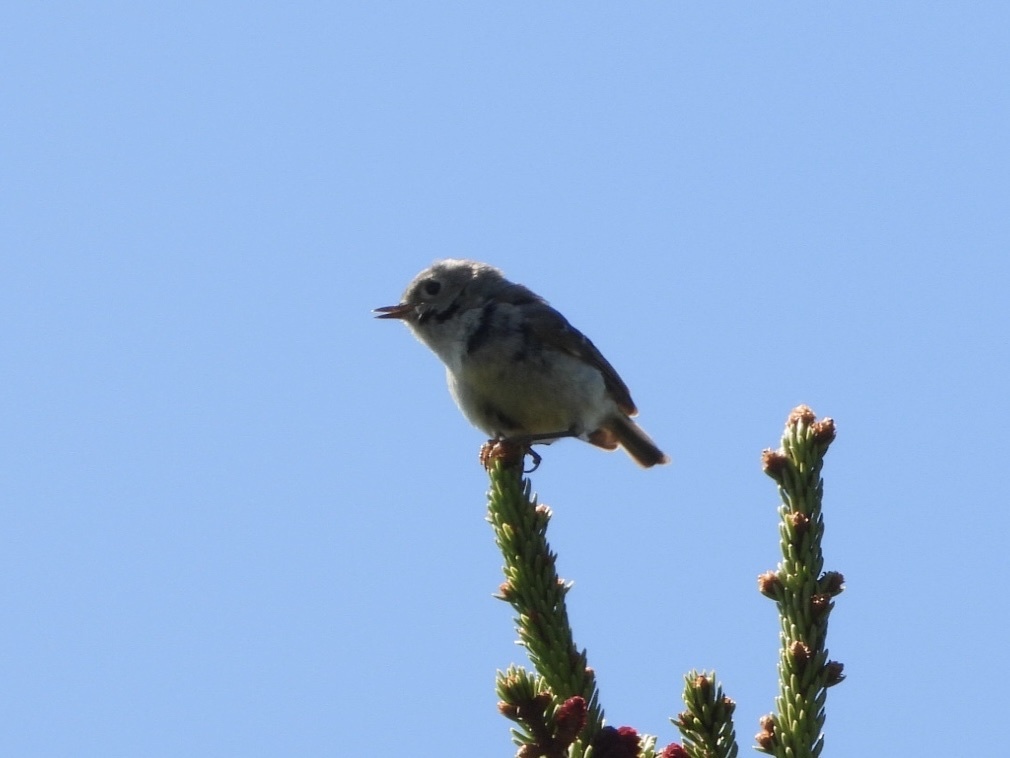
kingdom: Animalia
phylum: Chordata
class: Aves
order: Passeriformes
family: Regulidae
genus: Regulus
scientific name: Regulus calendula
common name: Ruby-crowned kinglet
